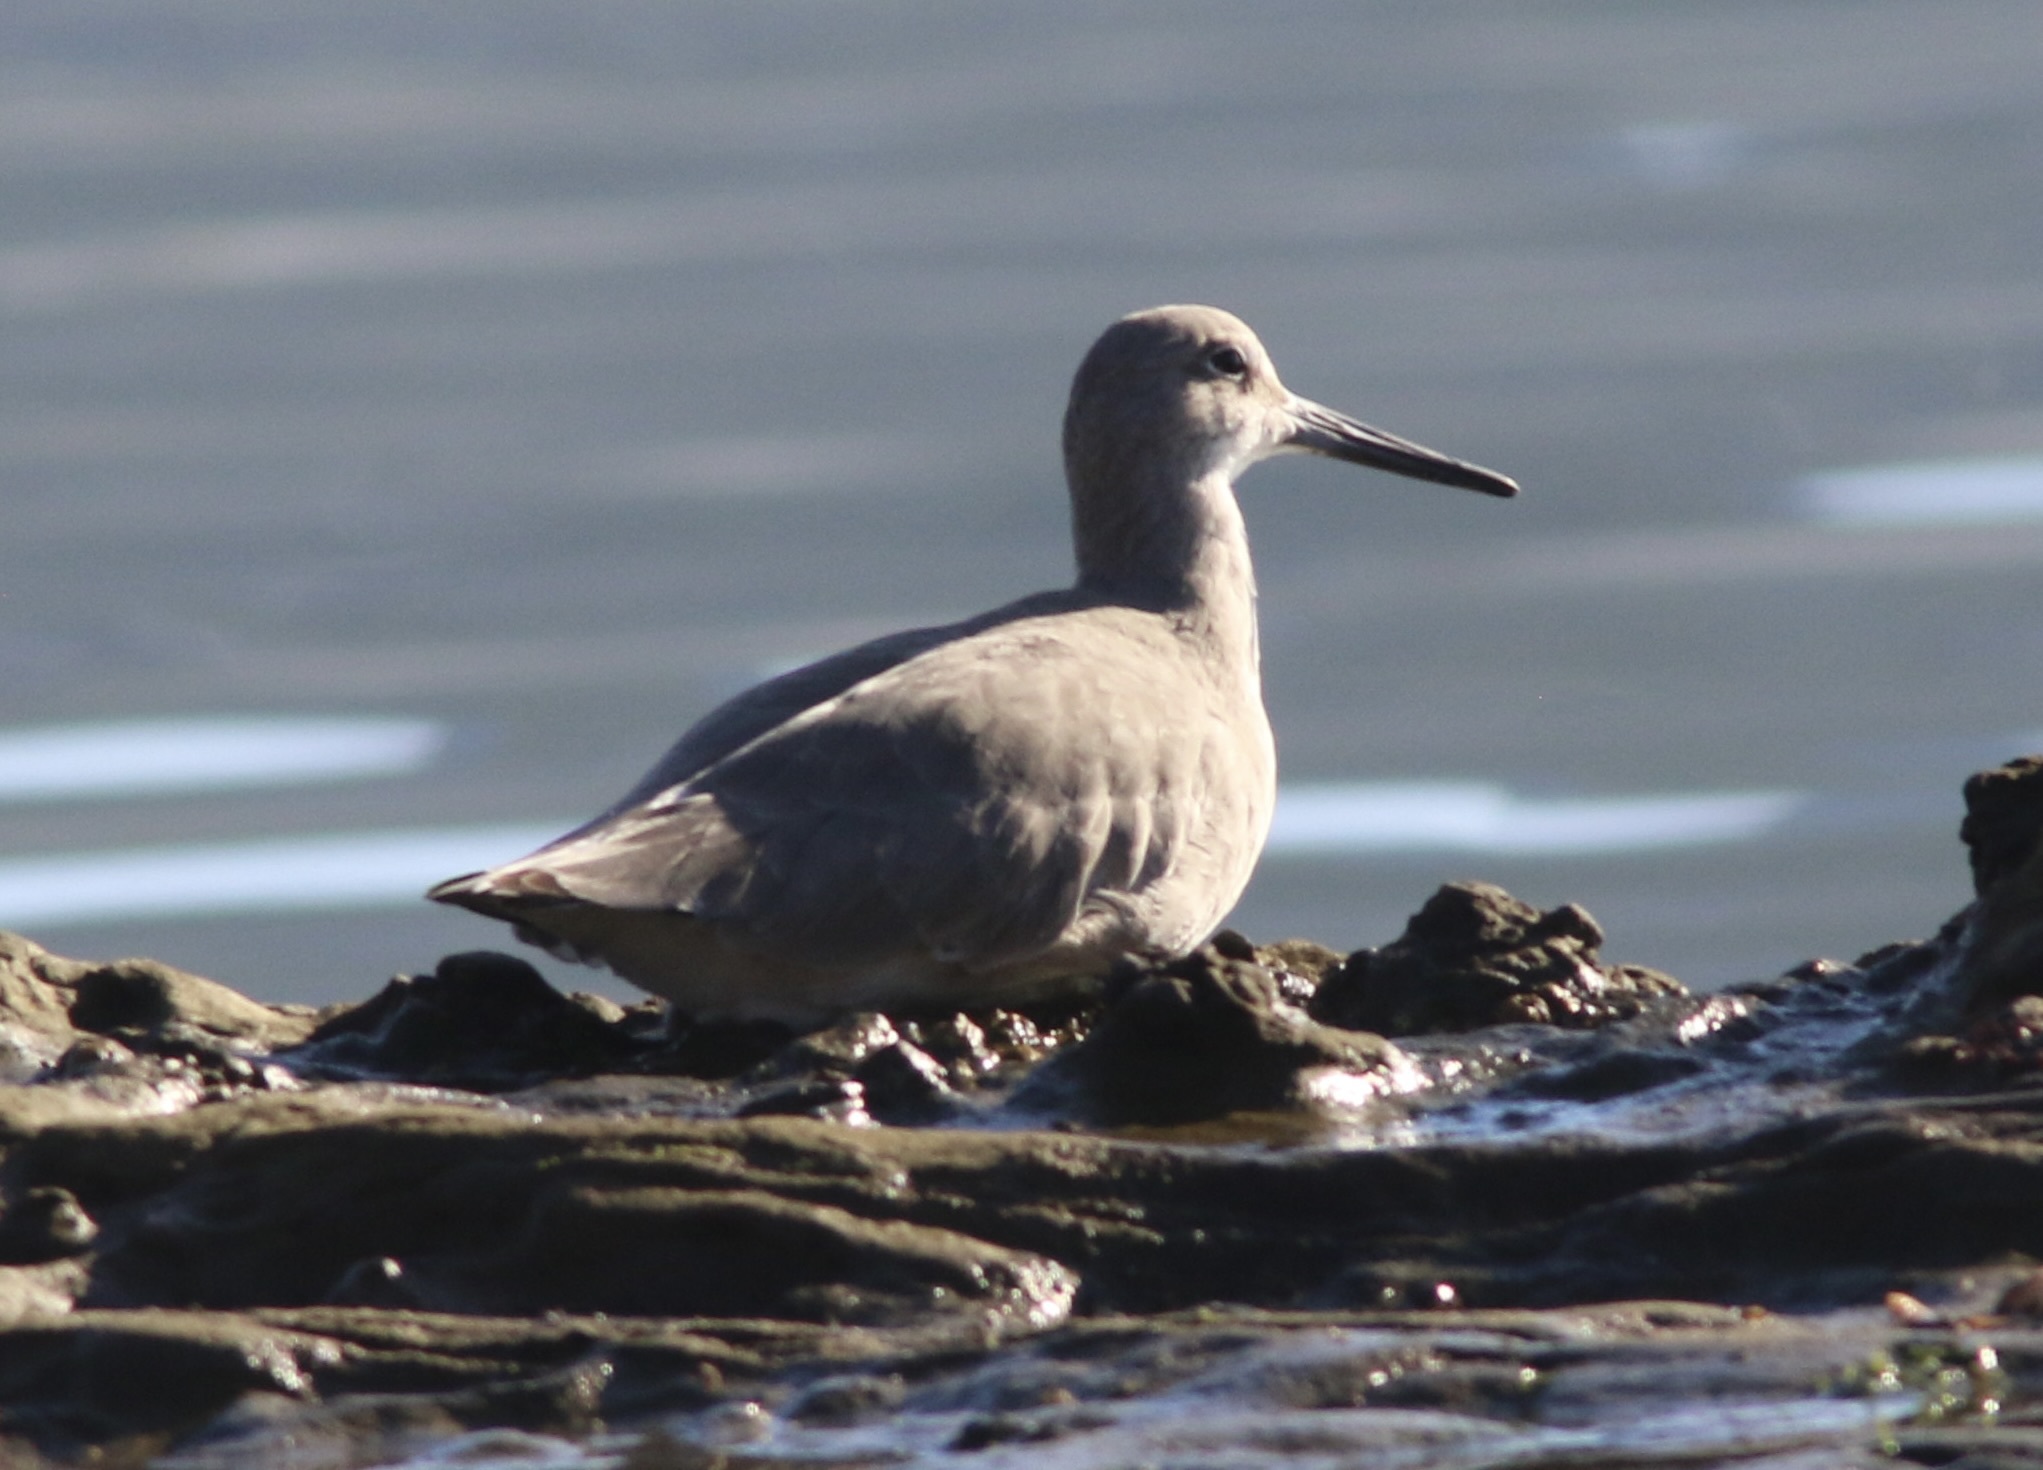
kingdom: Animalia
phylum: Chordata
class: Aves
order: Charadriiformes
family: Scolopacidae
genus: Tringa
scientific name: Tringa semipalmata
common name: Willet
